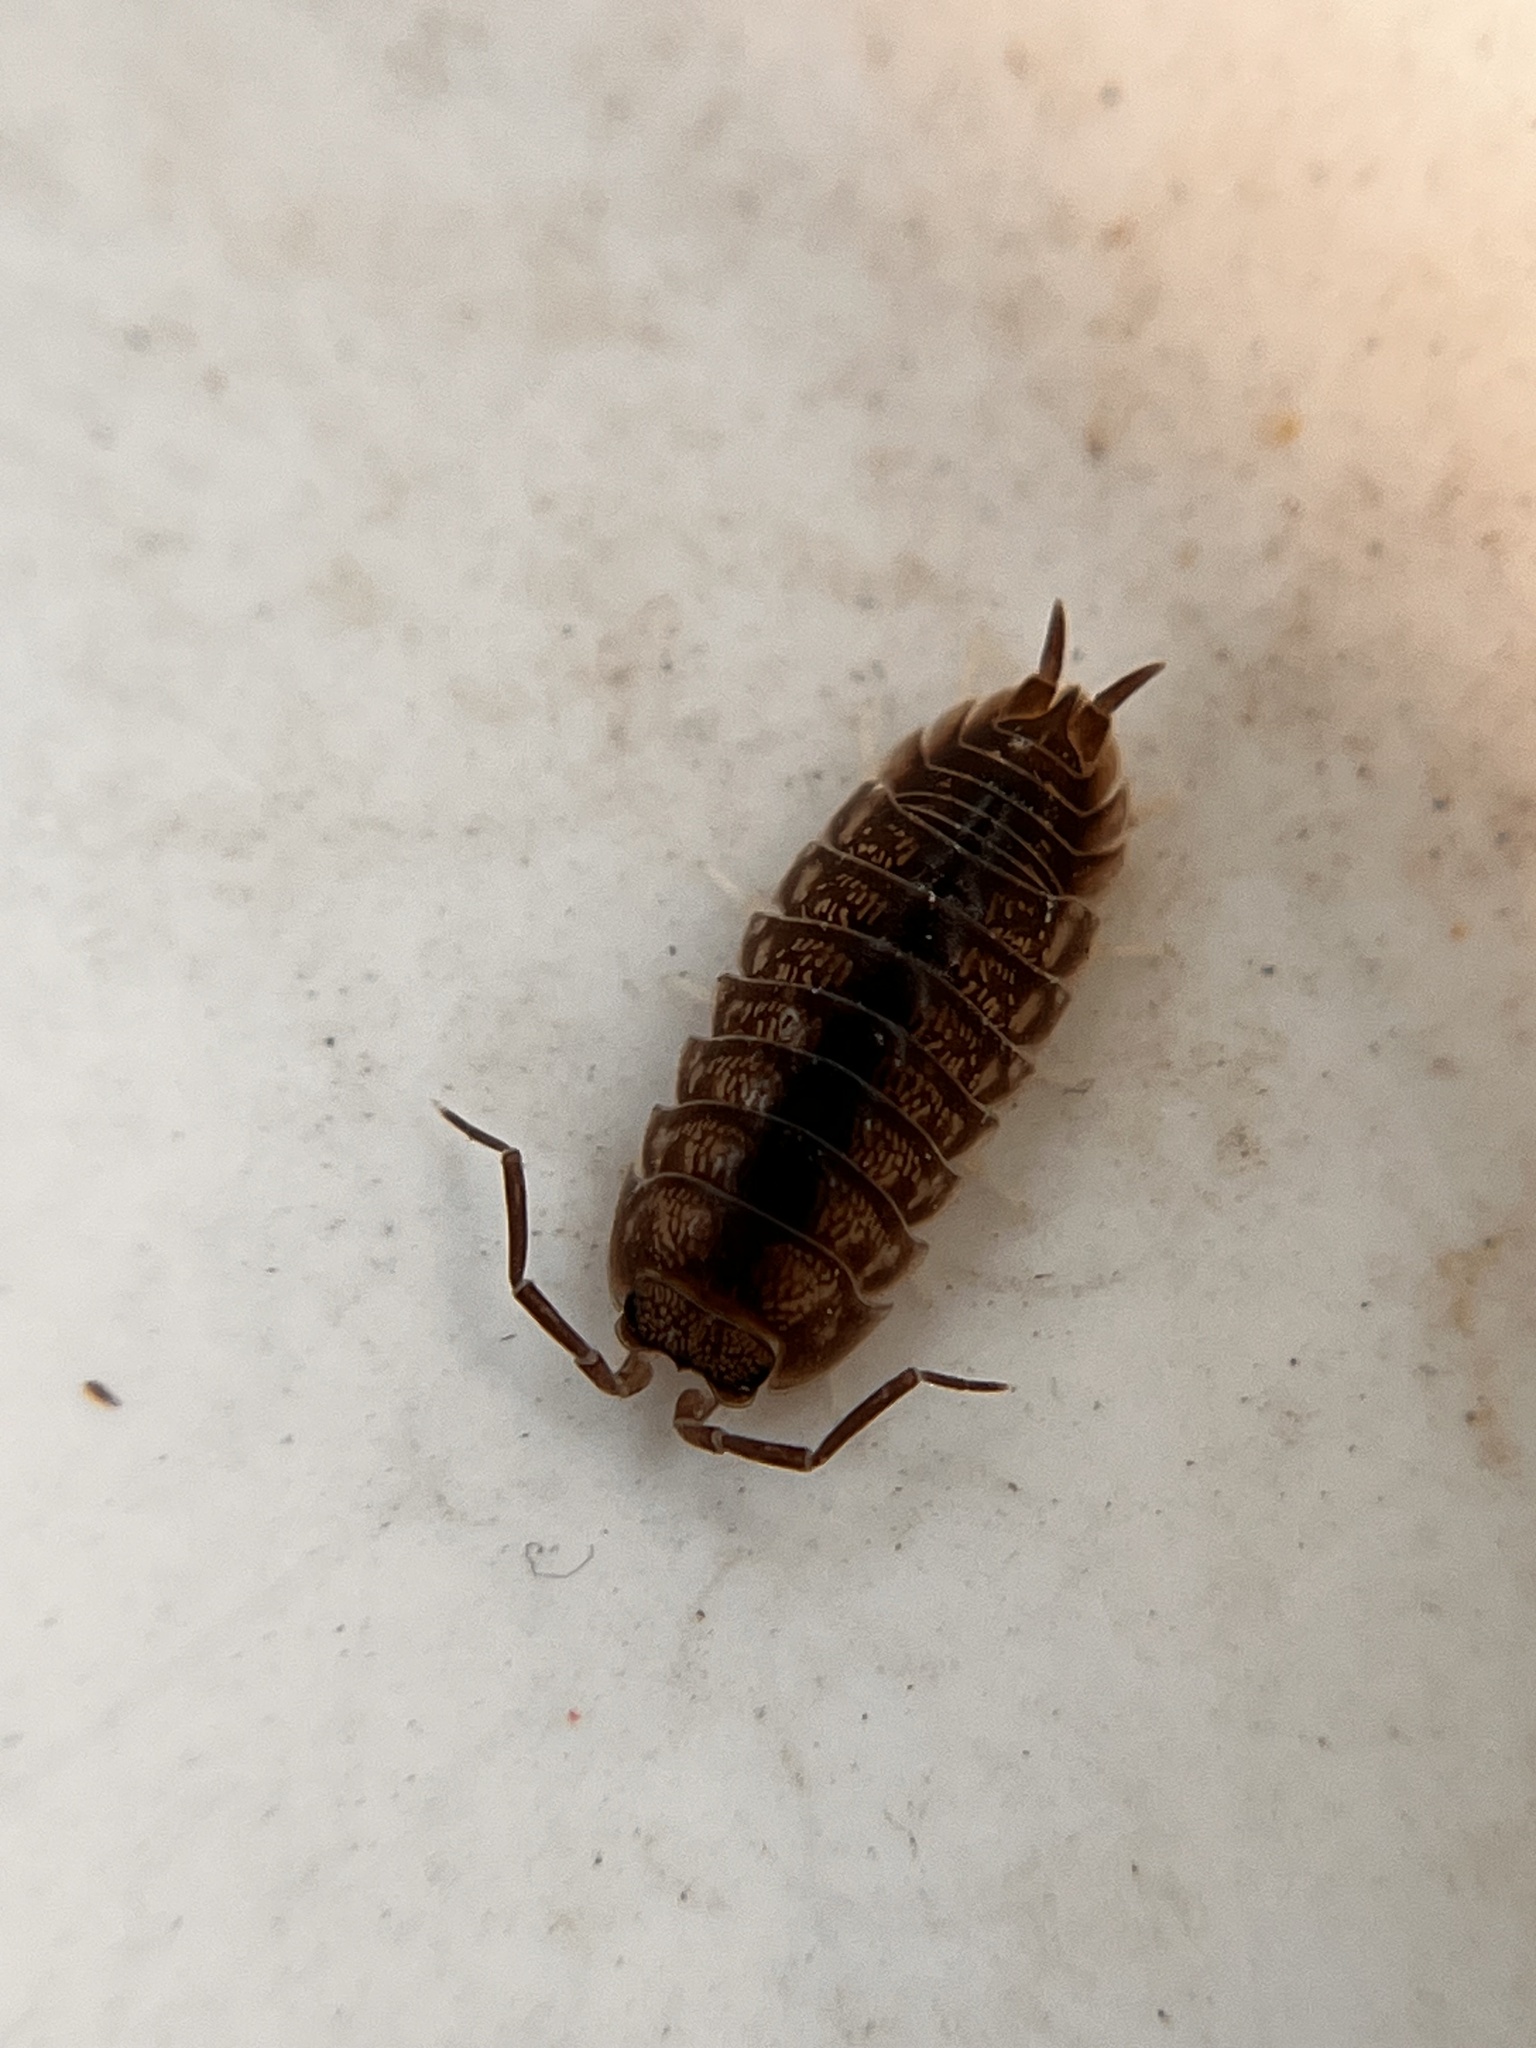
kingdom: Animalia
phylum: Arthropoda
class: Malacostraca
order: Isopoda
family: Cylisticidae
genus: Cylisticus
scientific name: Cylisticus convexus
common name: Curly woodlouse
